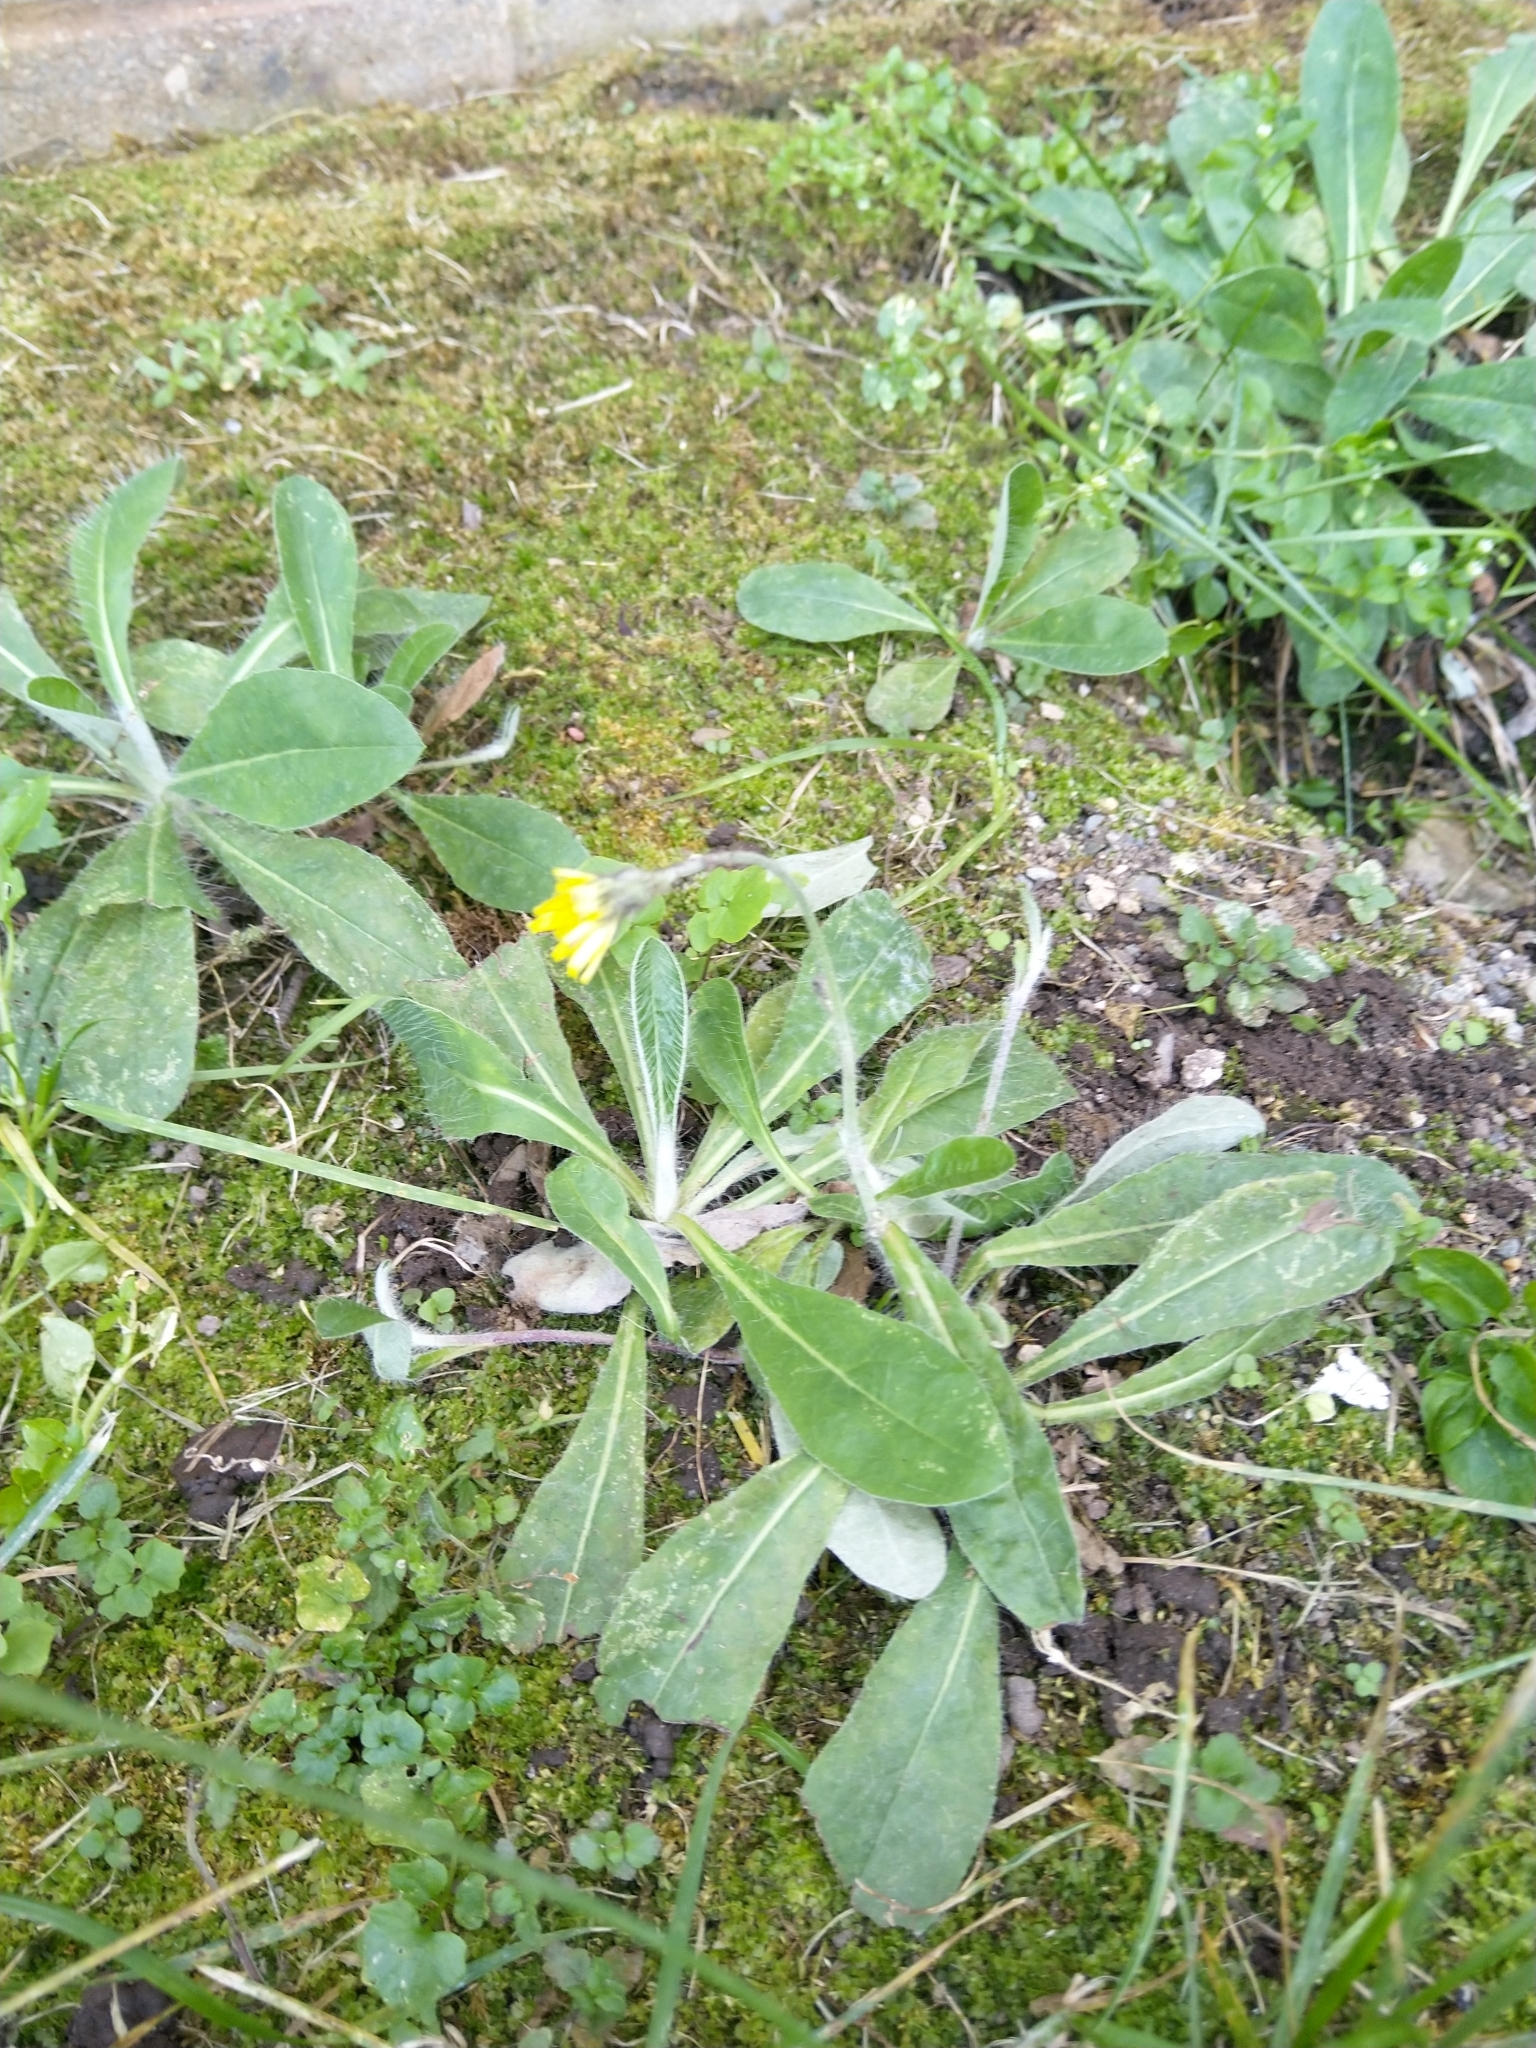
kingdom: Plantae
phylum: Tracheophyta
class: Magnoliopsida
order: Asterales
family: Asteraceae
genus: Pilosella
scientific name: Pilosella officinarum
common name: Mouse-ear hawkweed
